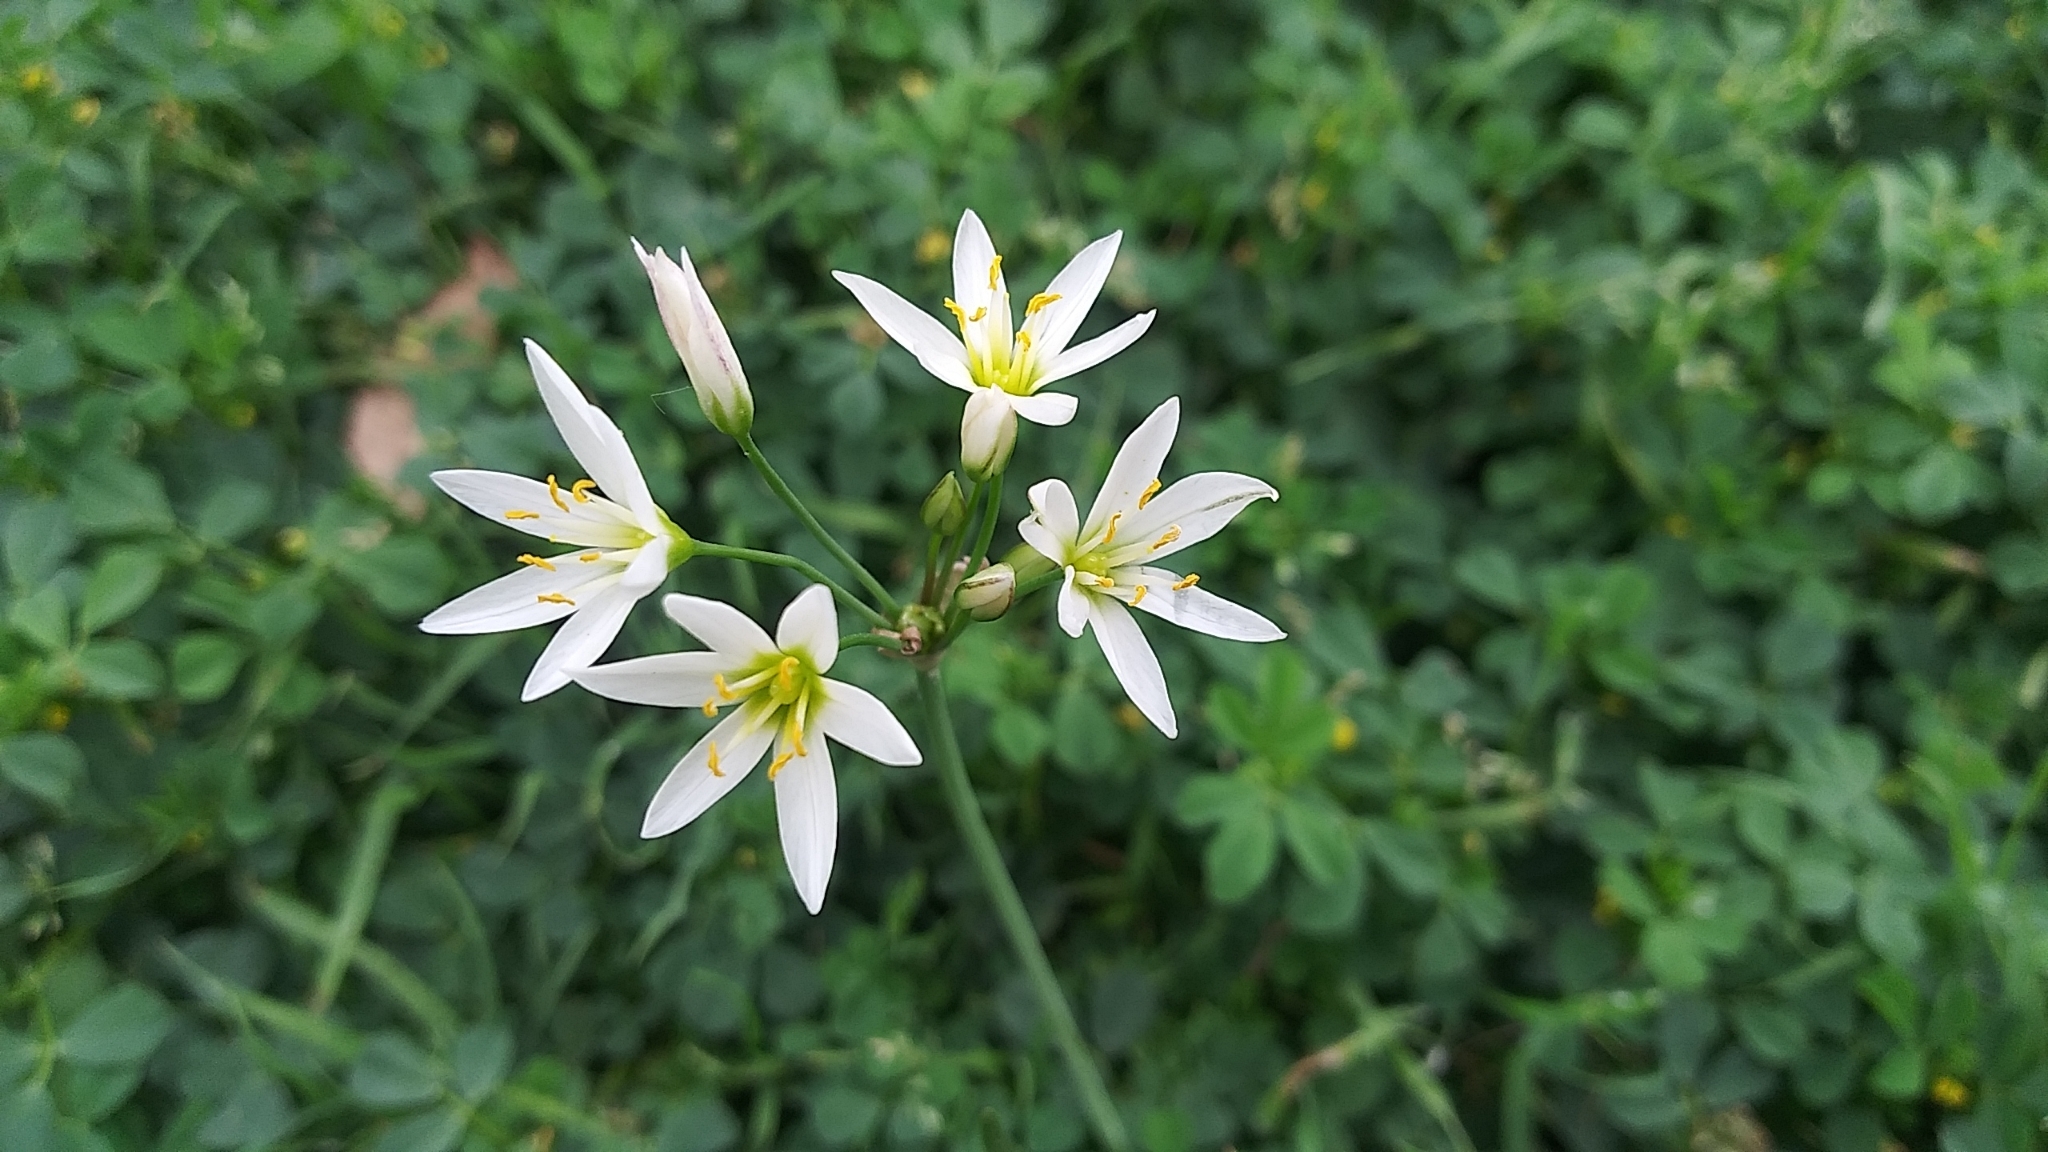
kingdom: Plantae
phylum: Tracheophyta
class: Liliopsida
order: Asparagales
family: Amaryllidaceae
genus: Nothoscordum
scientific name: Nothoscordum bivalve
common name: Crow-poison
